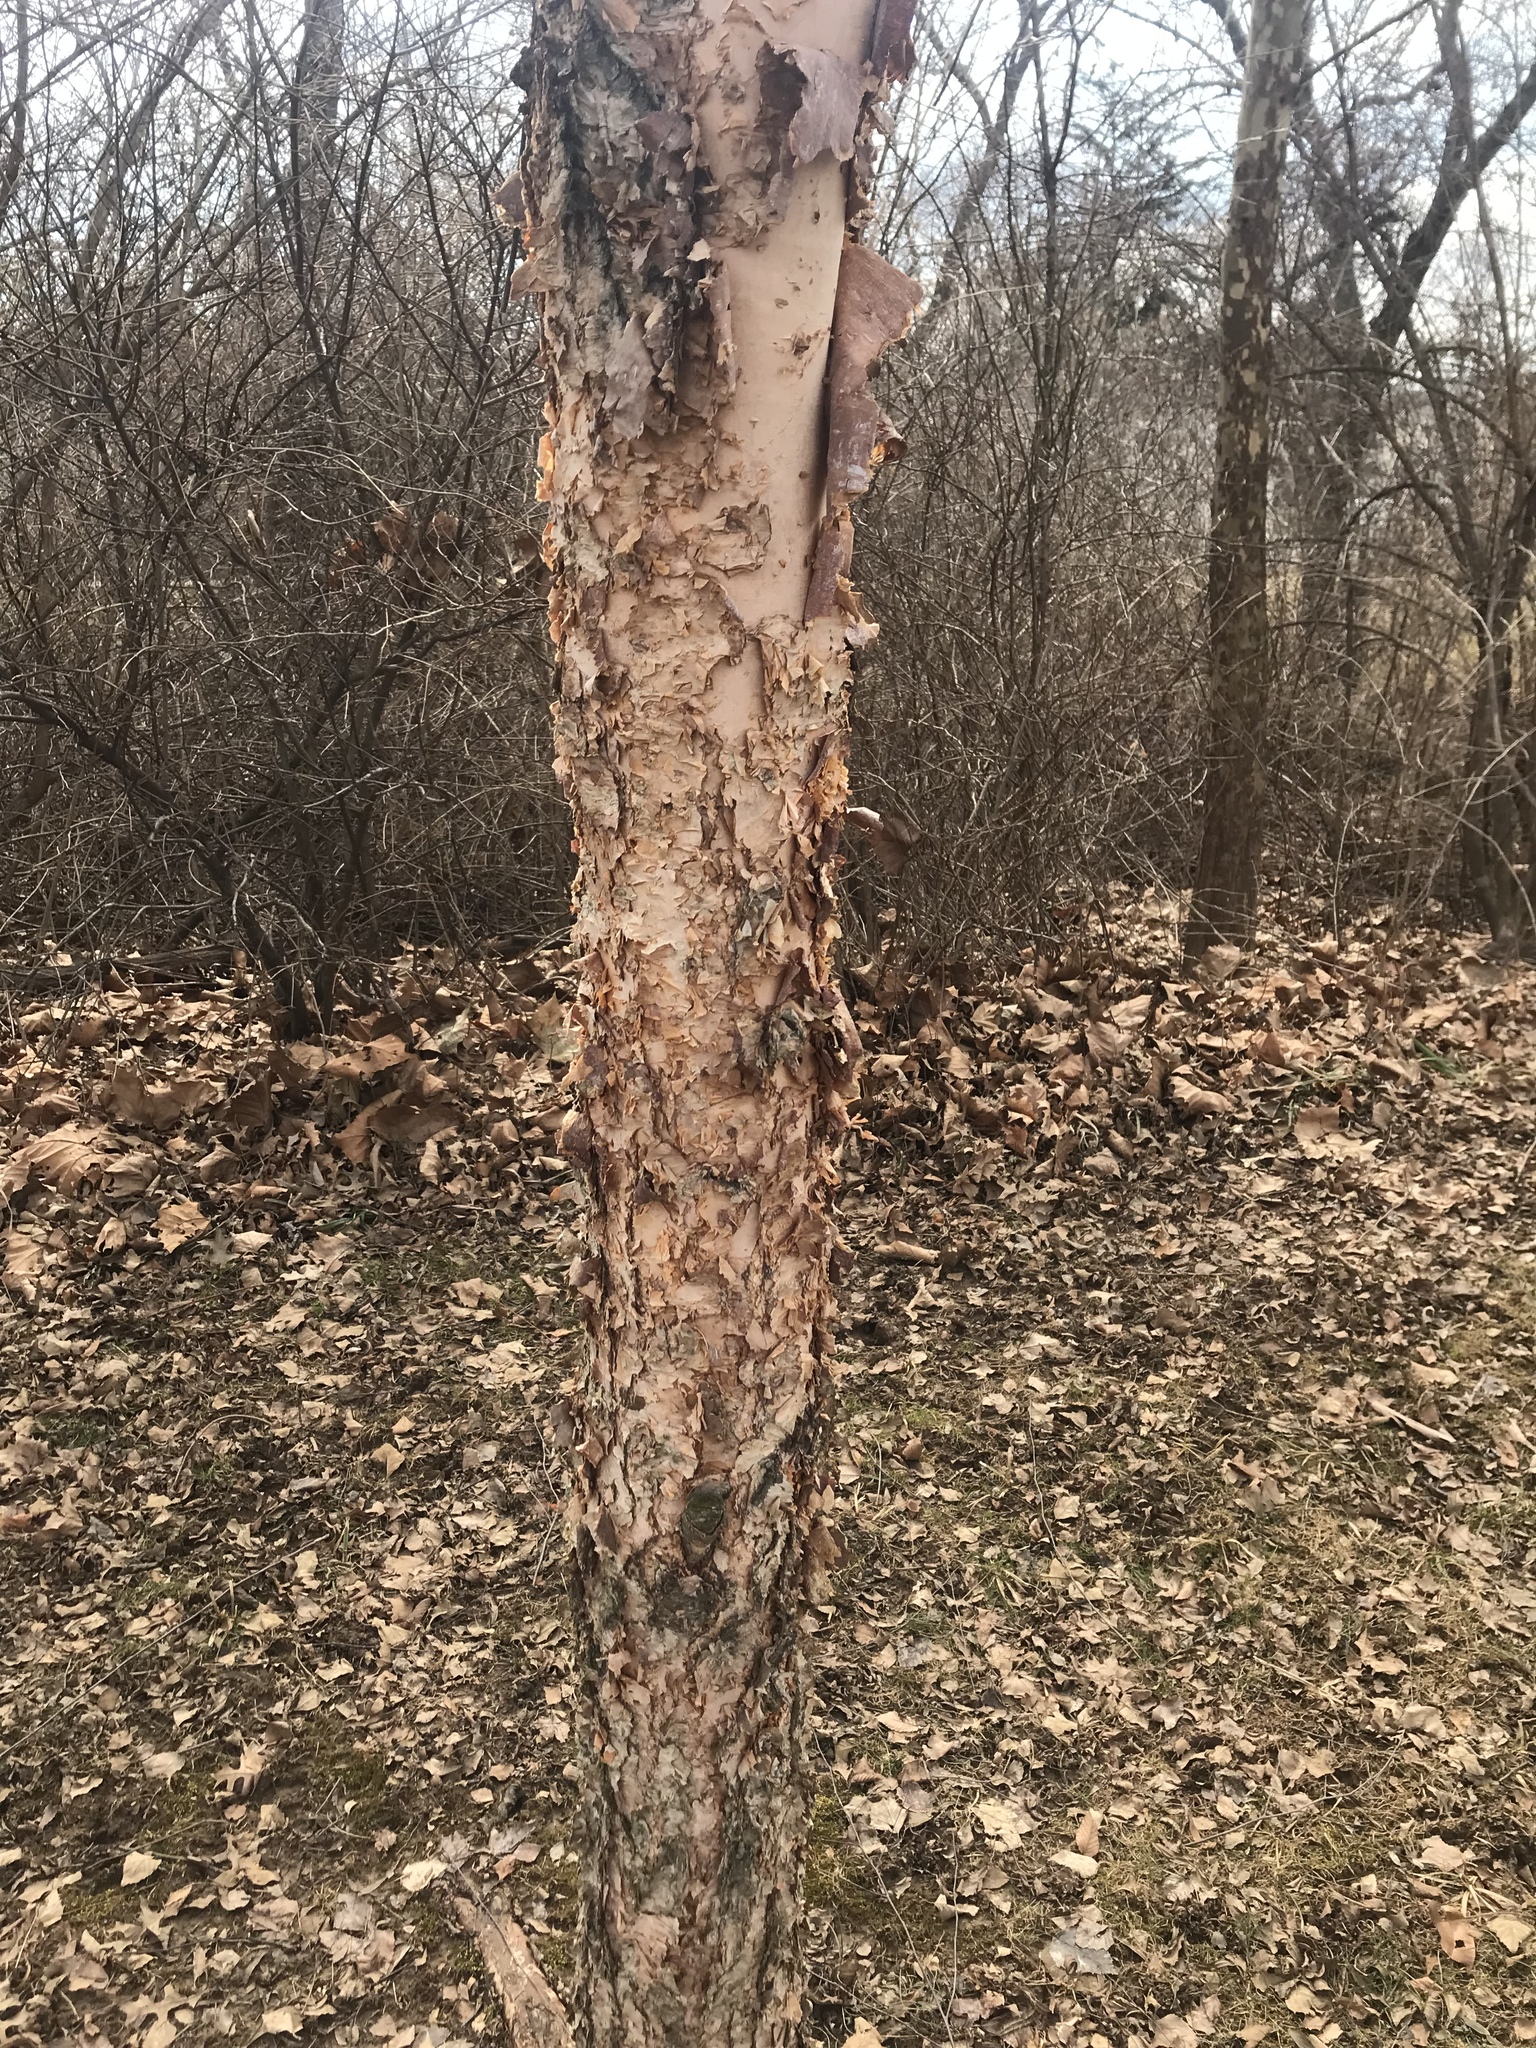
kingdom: Plantae
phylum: Tracheophyta
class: Magnoliopsida
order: Fagales
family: Betulaceae
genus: Betula
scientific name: Betula nigra
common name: Black birch
